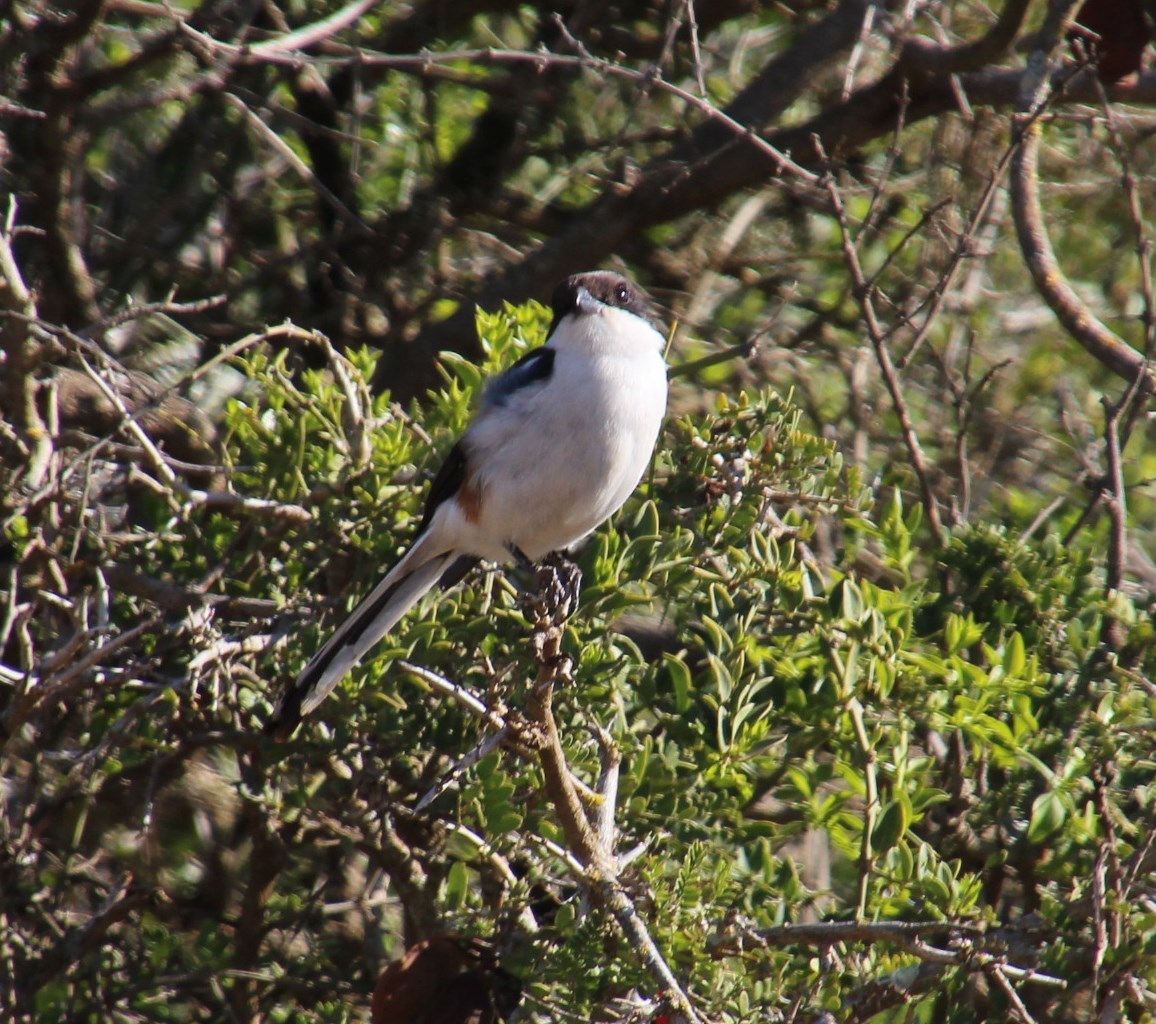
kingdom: Animalia
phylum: Chordata
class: Aves
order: Passeriformes
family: Laniidae
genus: Lanius
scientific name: Lanius collaris
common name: Southern fiscal
